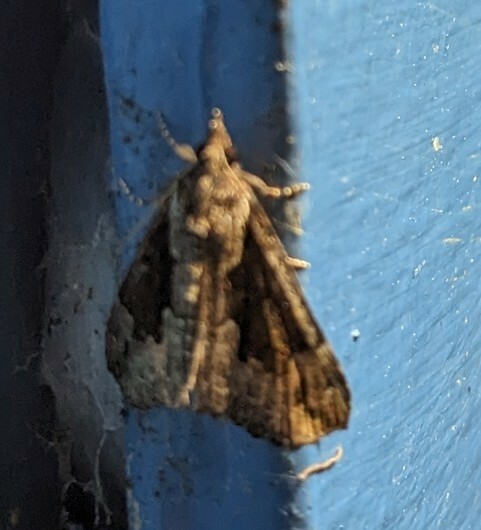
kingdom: Animalia
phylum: Arthropoda
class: Insecta
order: Lepidoptera
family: Erebidae
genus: Hypena
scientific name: Hypena baltimoralis
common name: Baltimore snout
